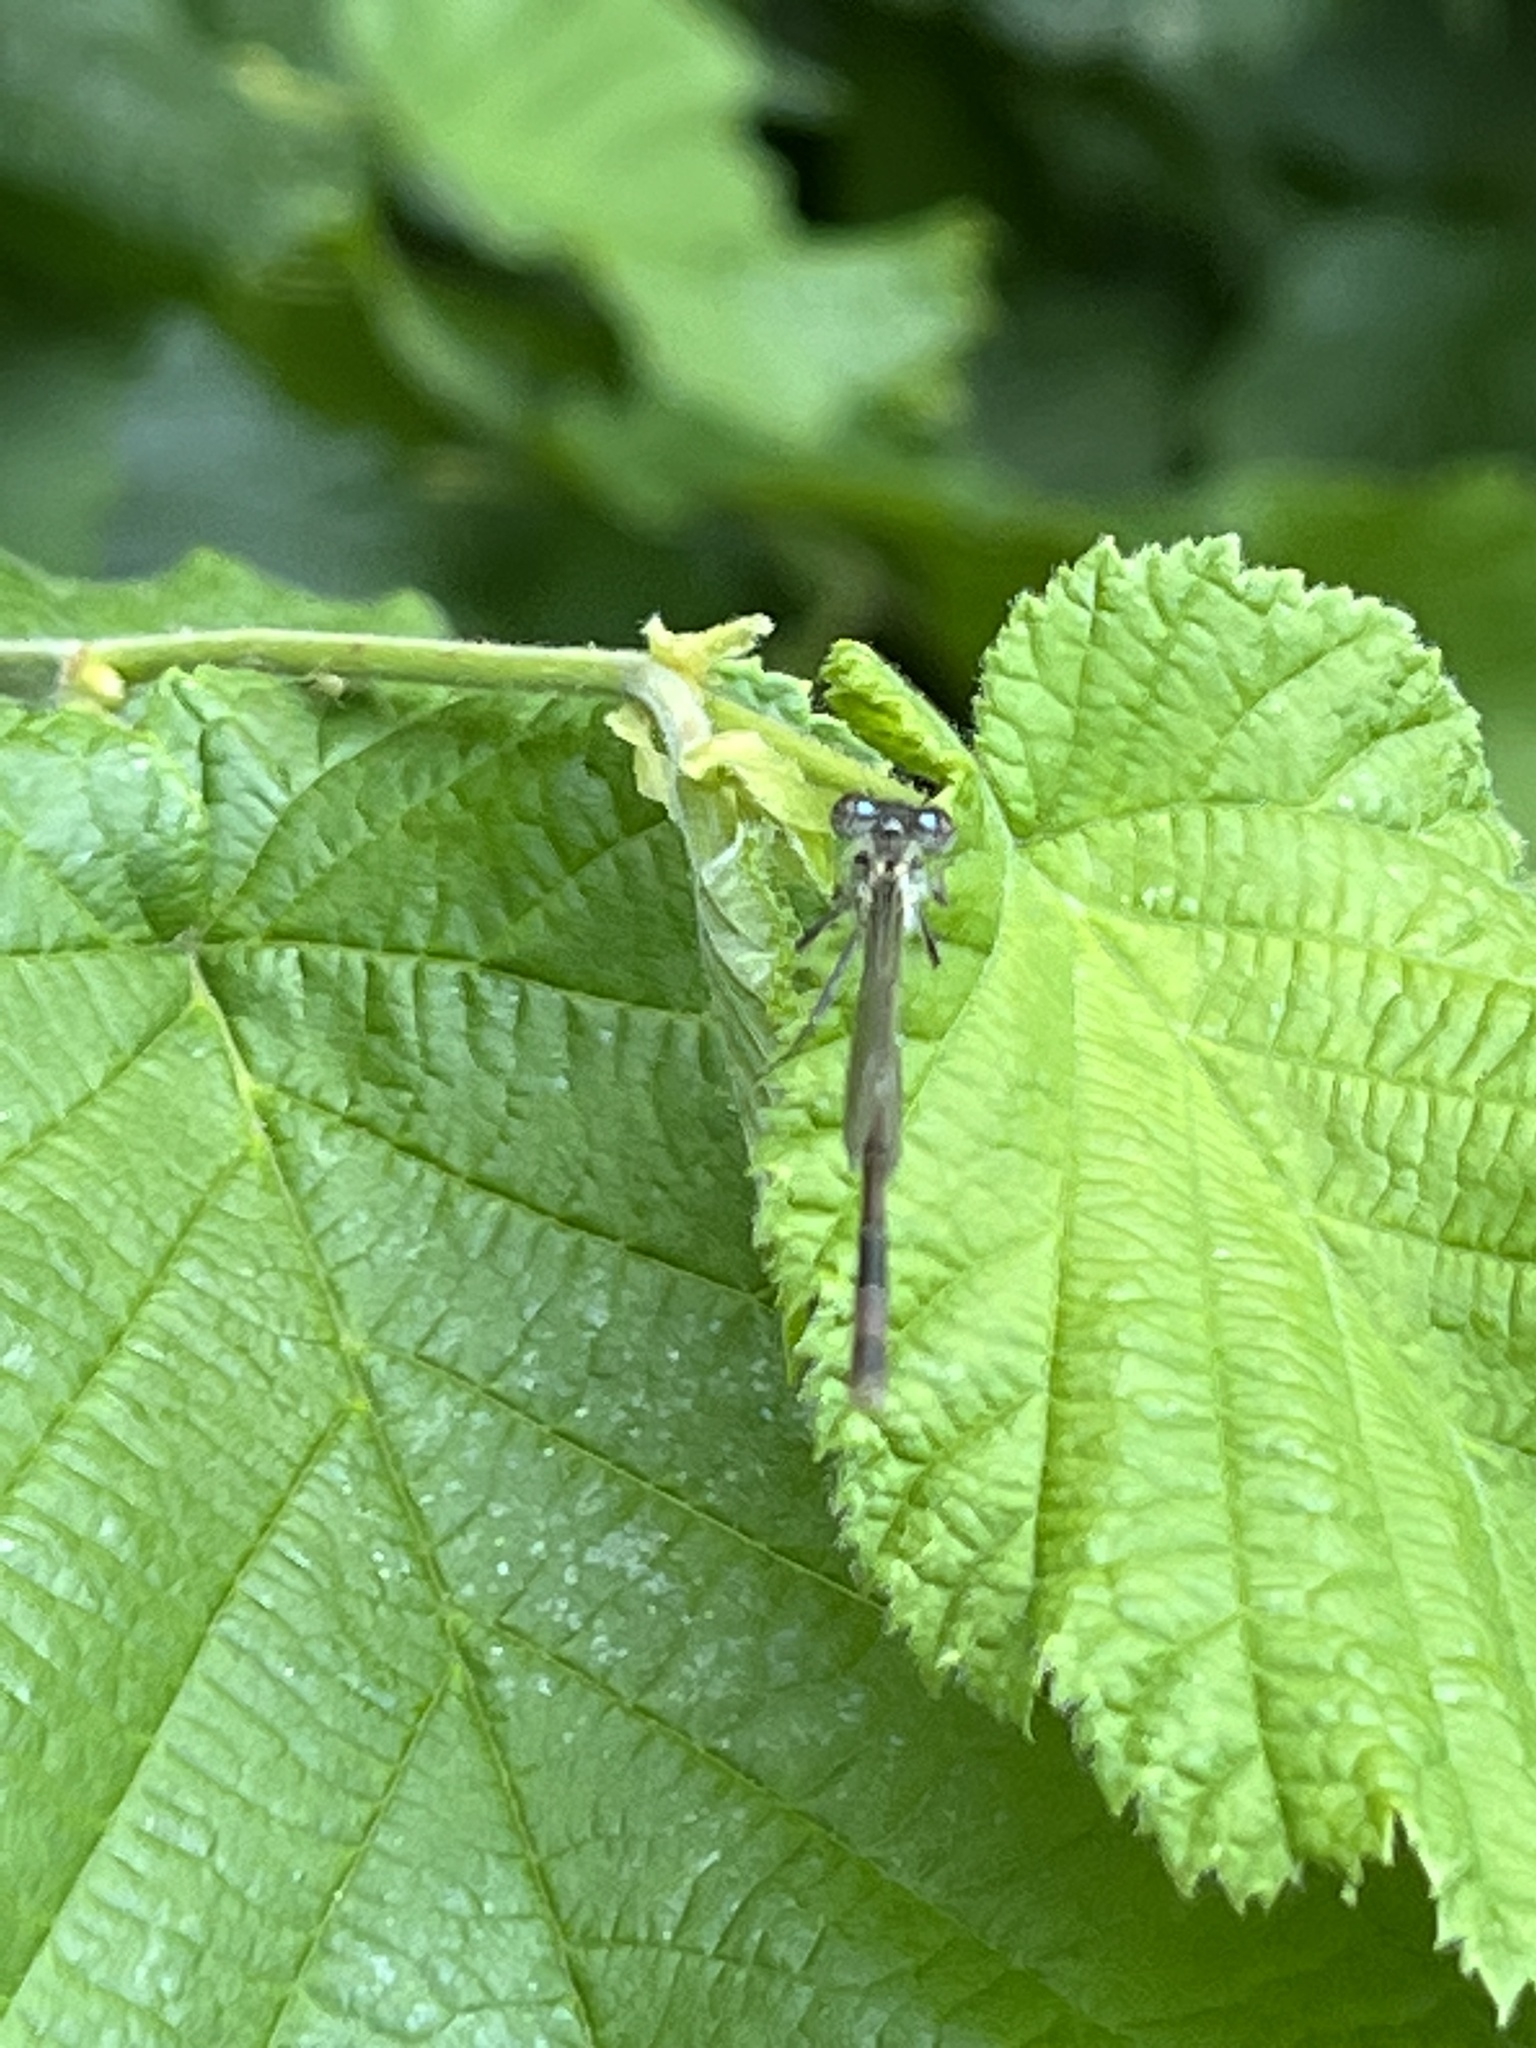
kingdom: Animalia
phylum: Arthropoda
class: Insecta
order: Odonata
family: Coenagrionidae
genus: Ischnura
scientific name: Ischnura elegans
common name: Blue-tailed damselfly
